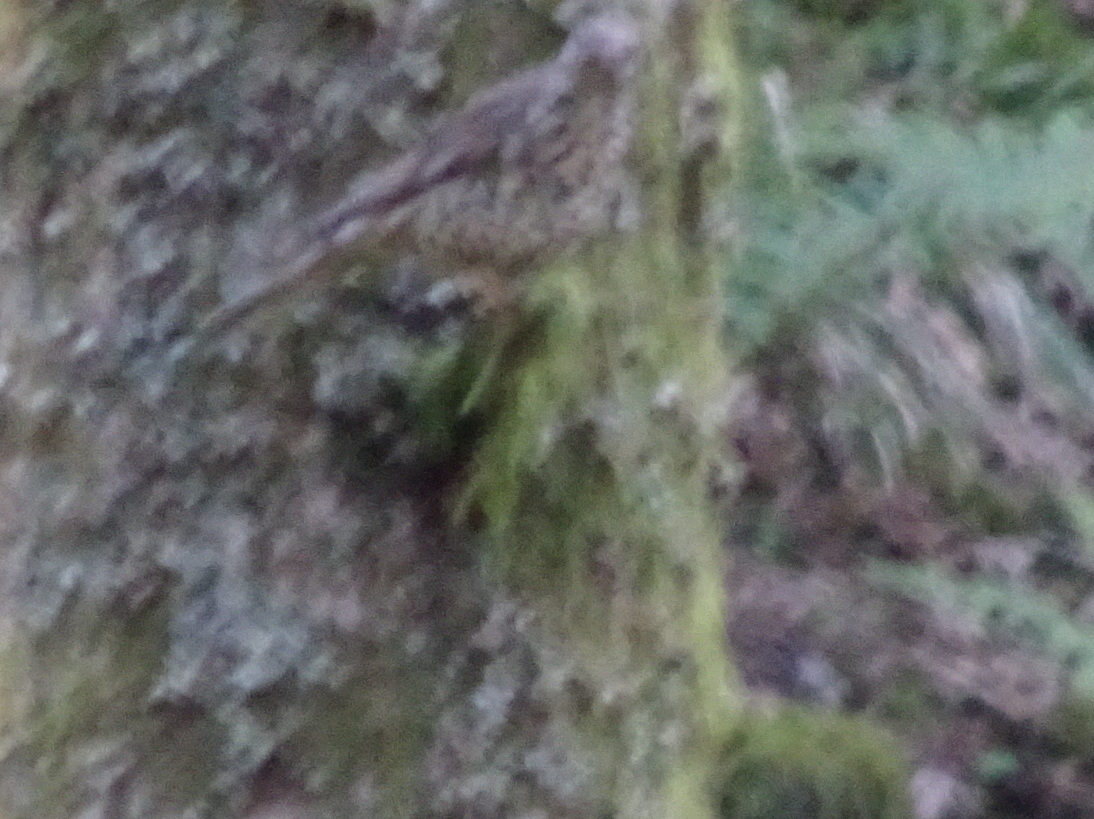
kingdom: Animalia
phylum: Chordata
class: Aves
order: Passeriformes
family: Turdidae
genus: Turdus
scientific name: Turdus viscivorus
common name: Mistle thrush
